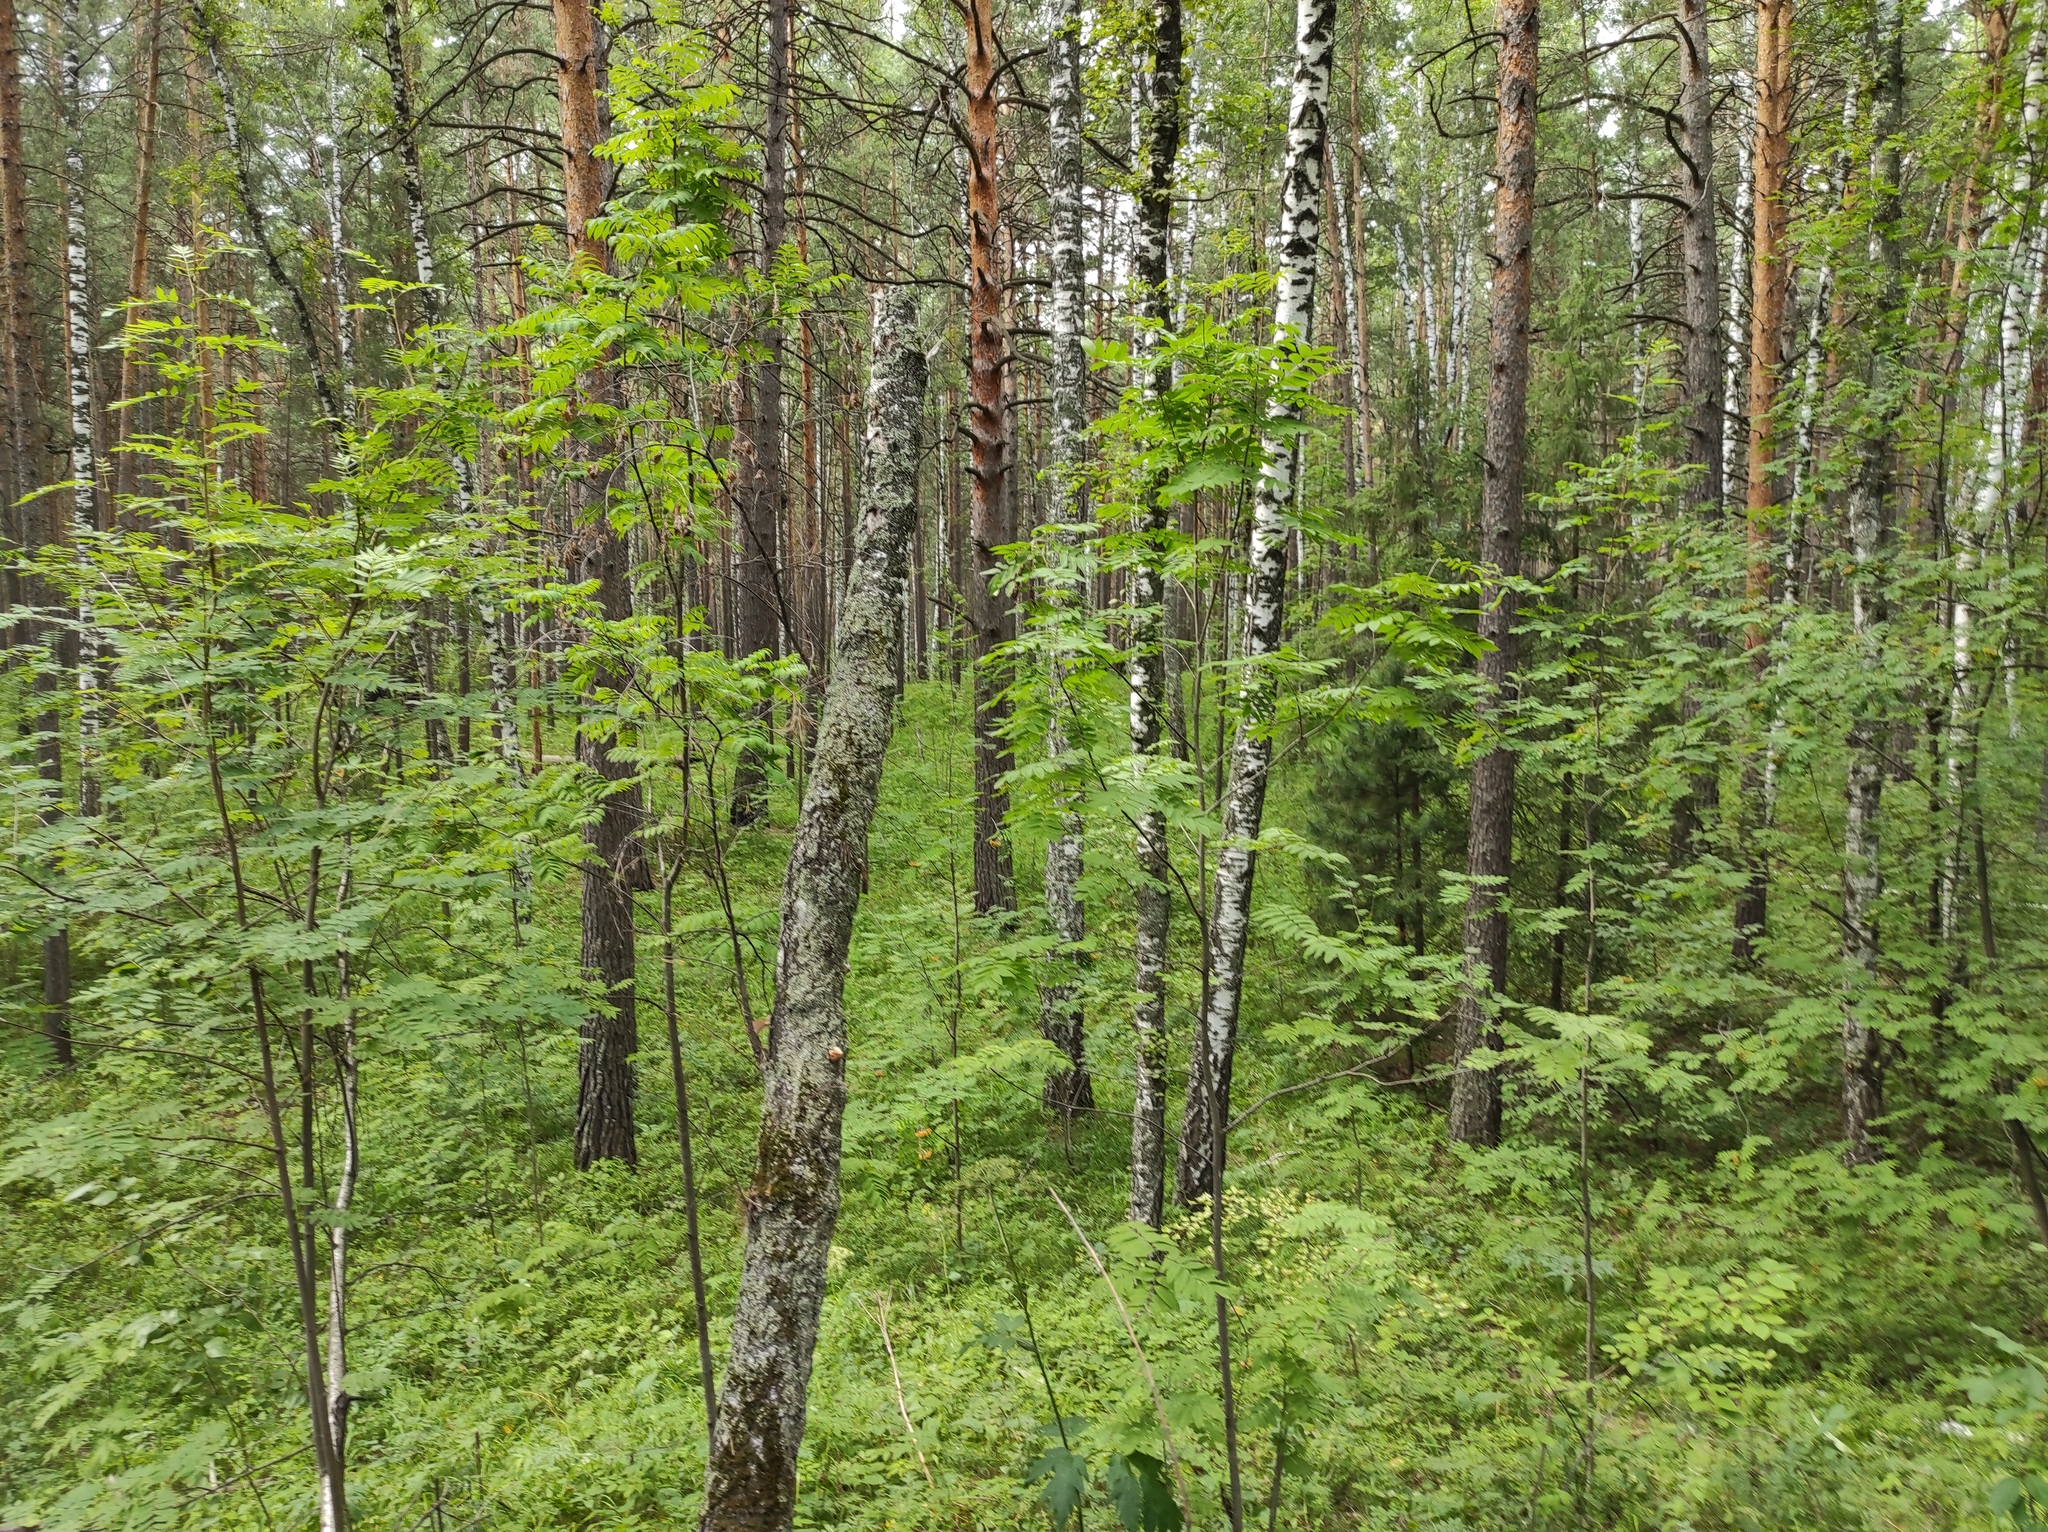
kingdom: Plantae
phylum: Tracheophyta
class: Pinopsida
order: Pinales
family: Pinaceae
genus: Pinus
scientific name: Pinus sylvestris
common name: Scots pine
